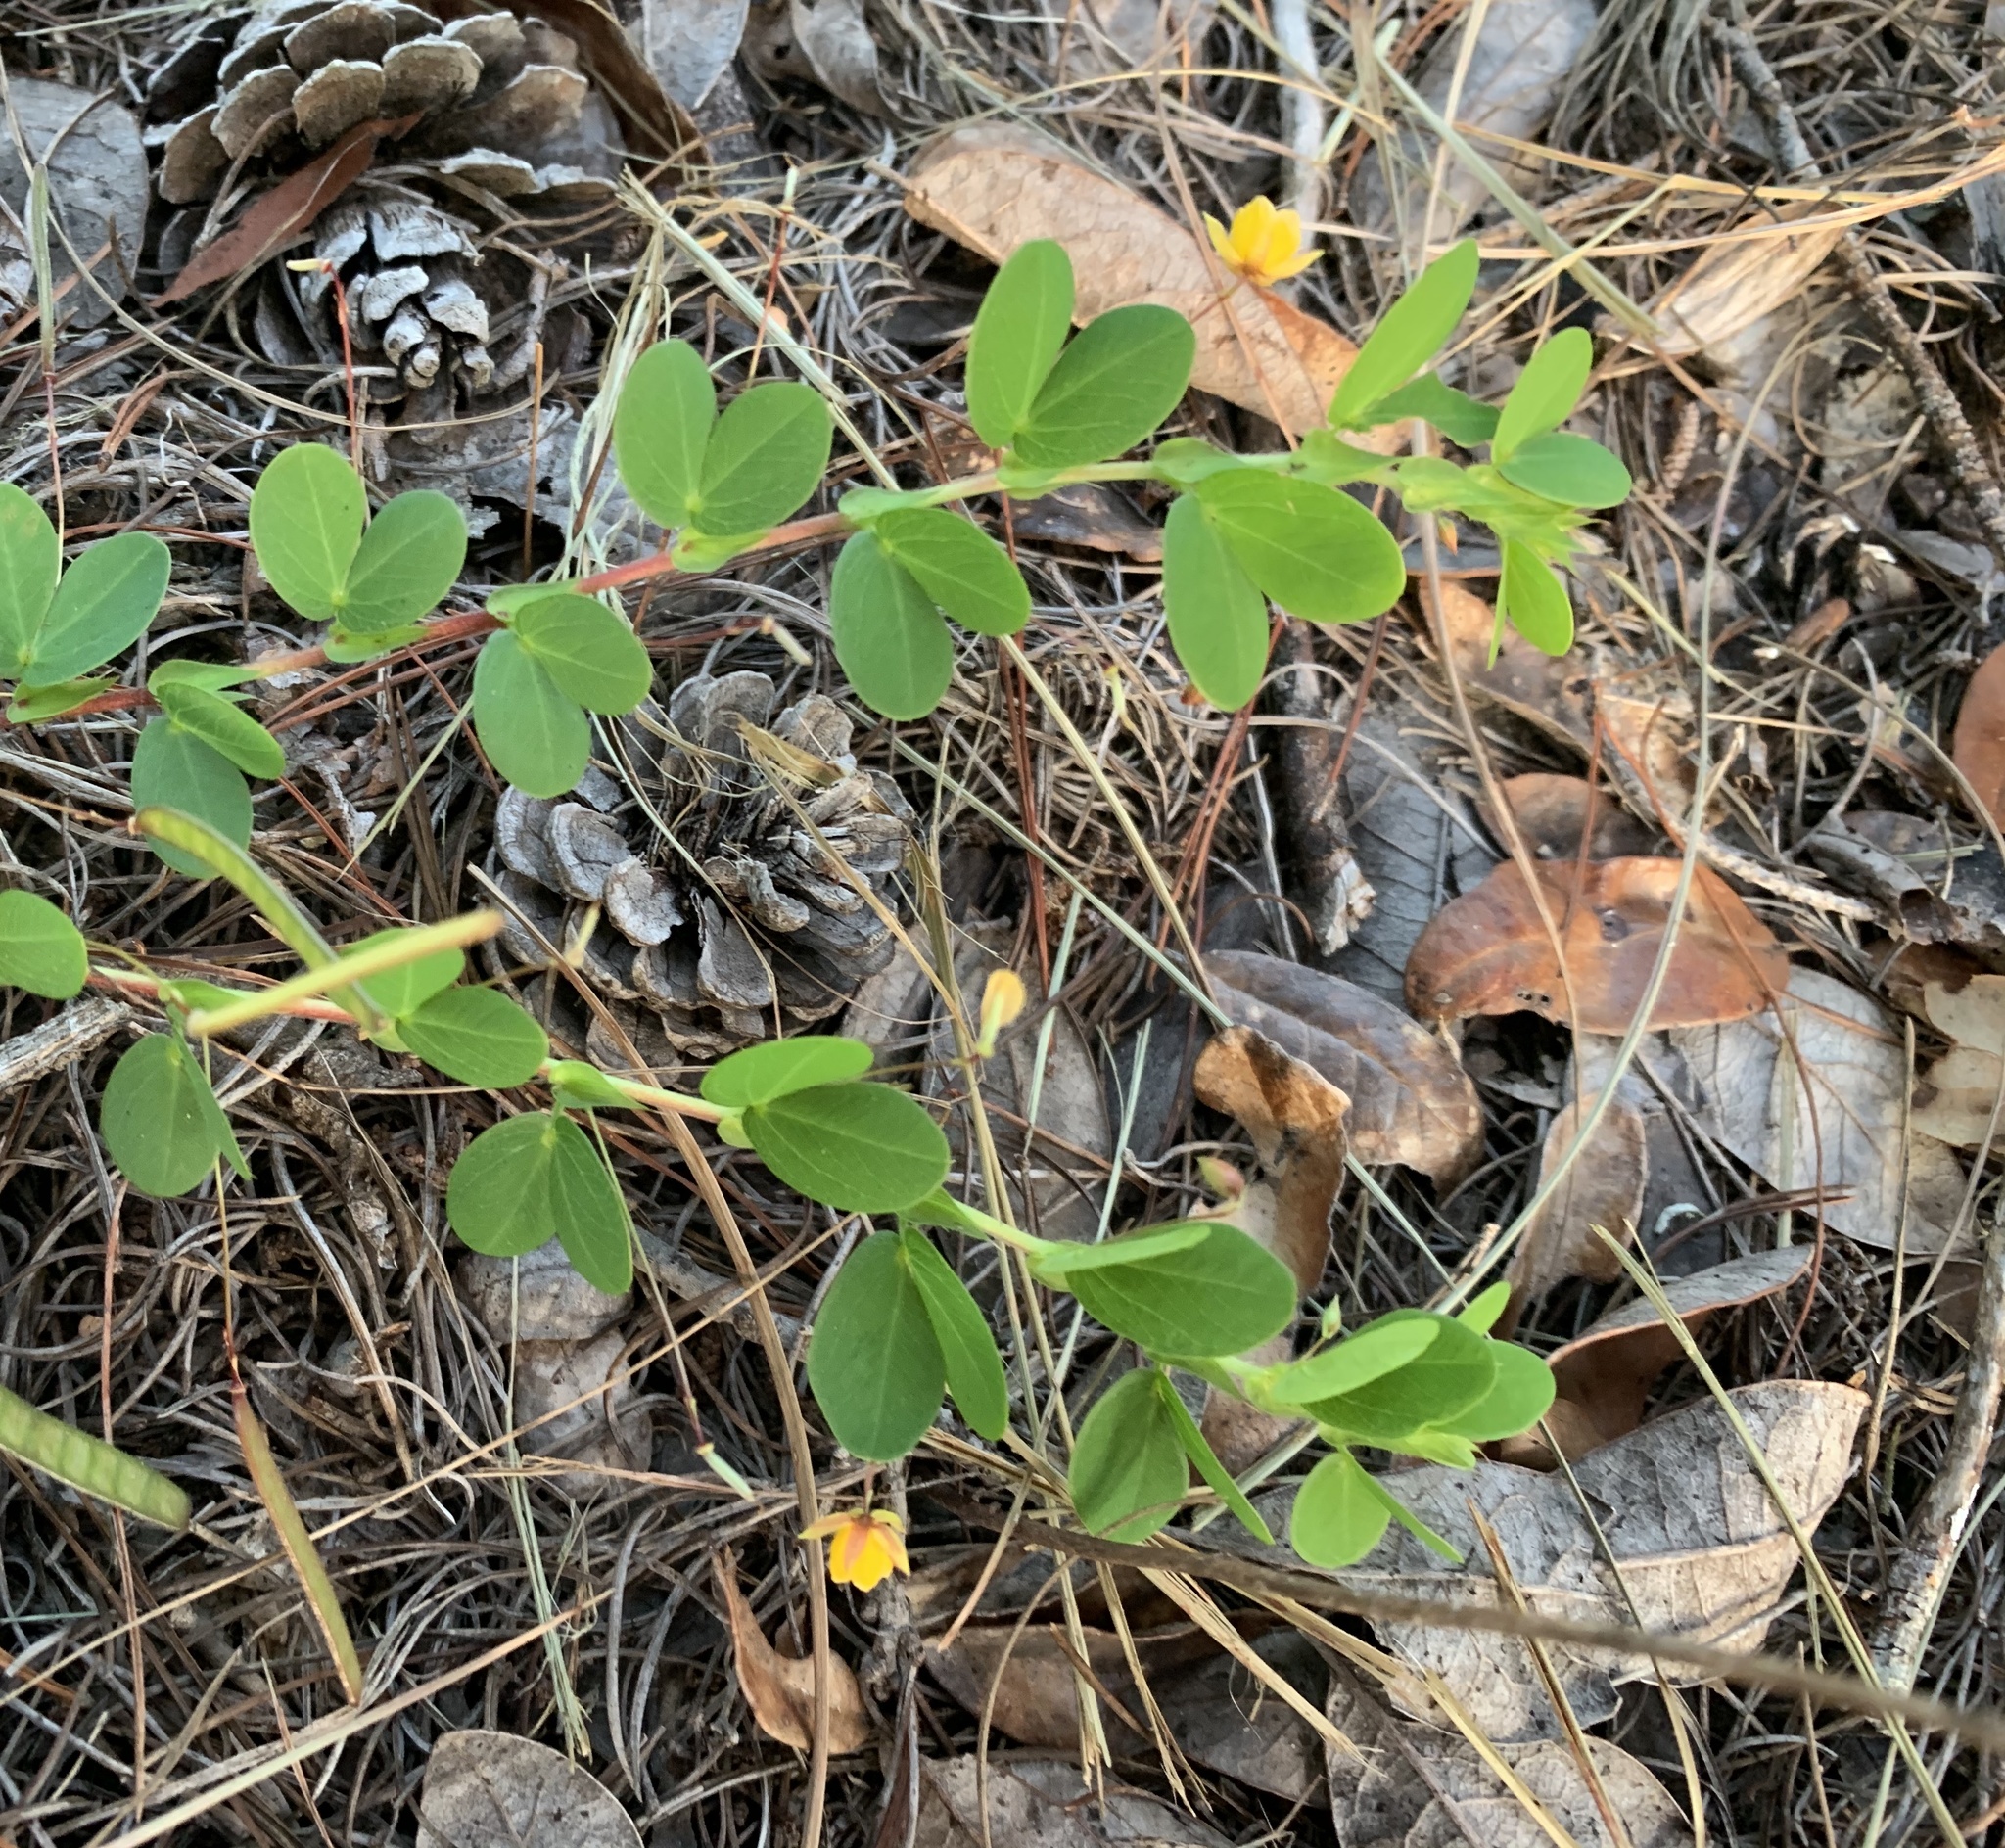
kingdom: Plantae
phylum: Tracheophyta
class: Magnoliopsida
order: Fabales
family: Fabaceae
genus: Chamaecrista
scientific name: Chamaecrista rotundifolia
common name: Round-leaf cassia
